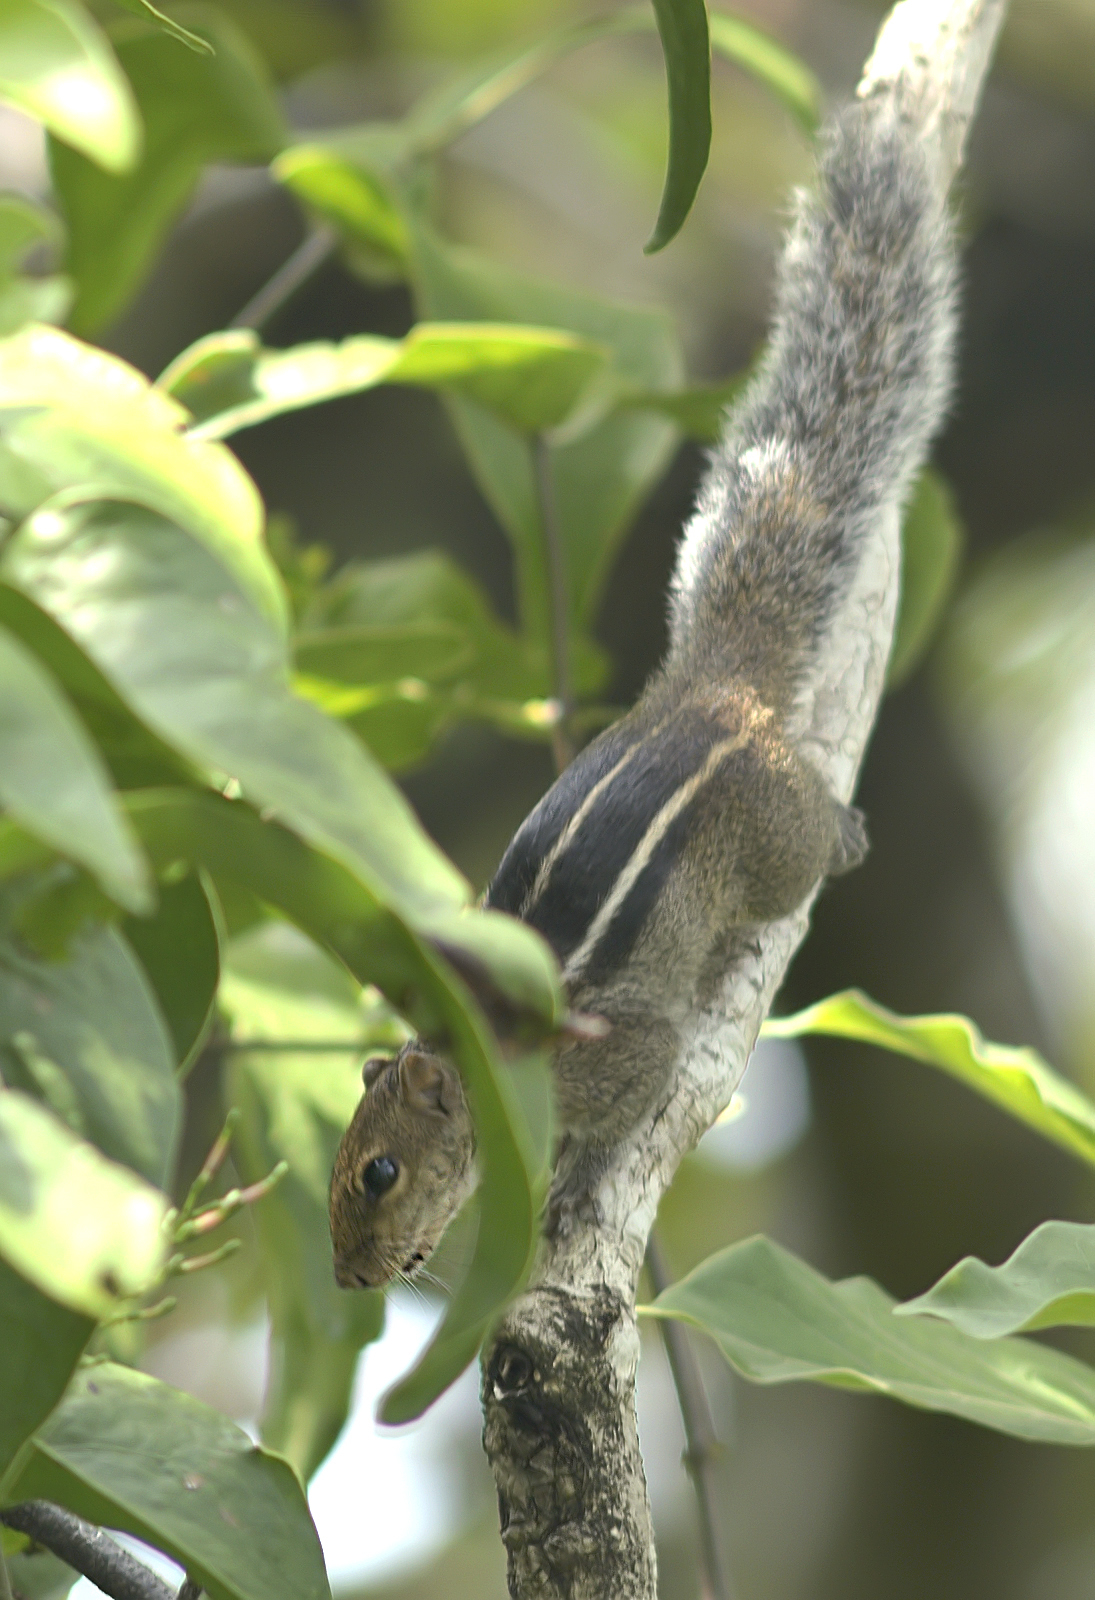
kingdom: Animalia
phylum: Chordata
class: Mammalia
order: Rodentia
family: Sciuridae
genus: Funambulus
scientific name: Funambulus tristriatus
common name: Jungle palm squirrel
